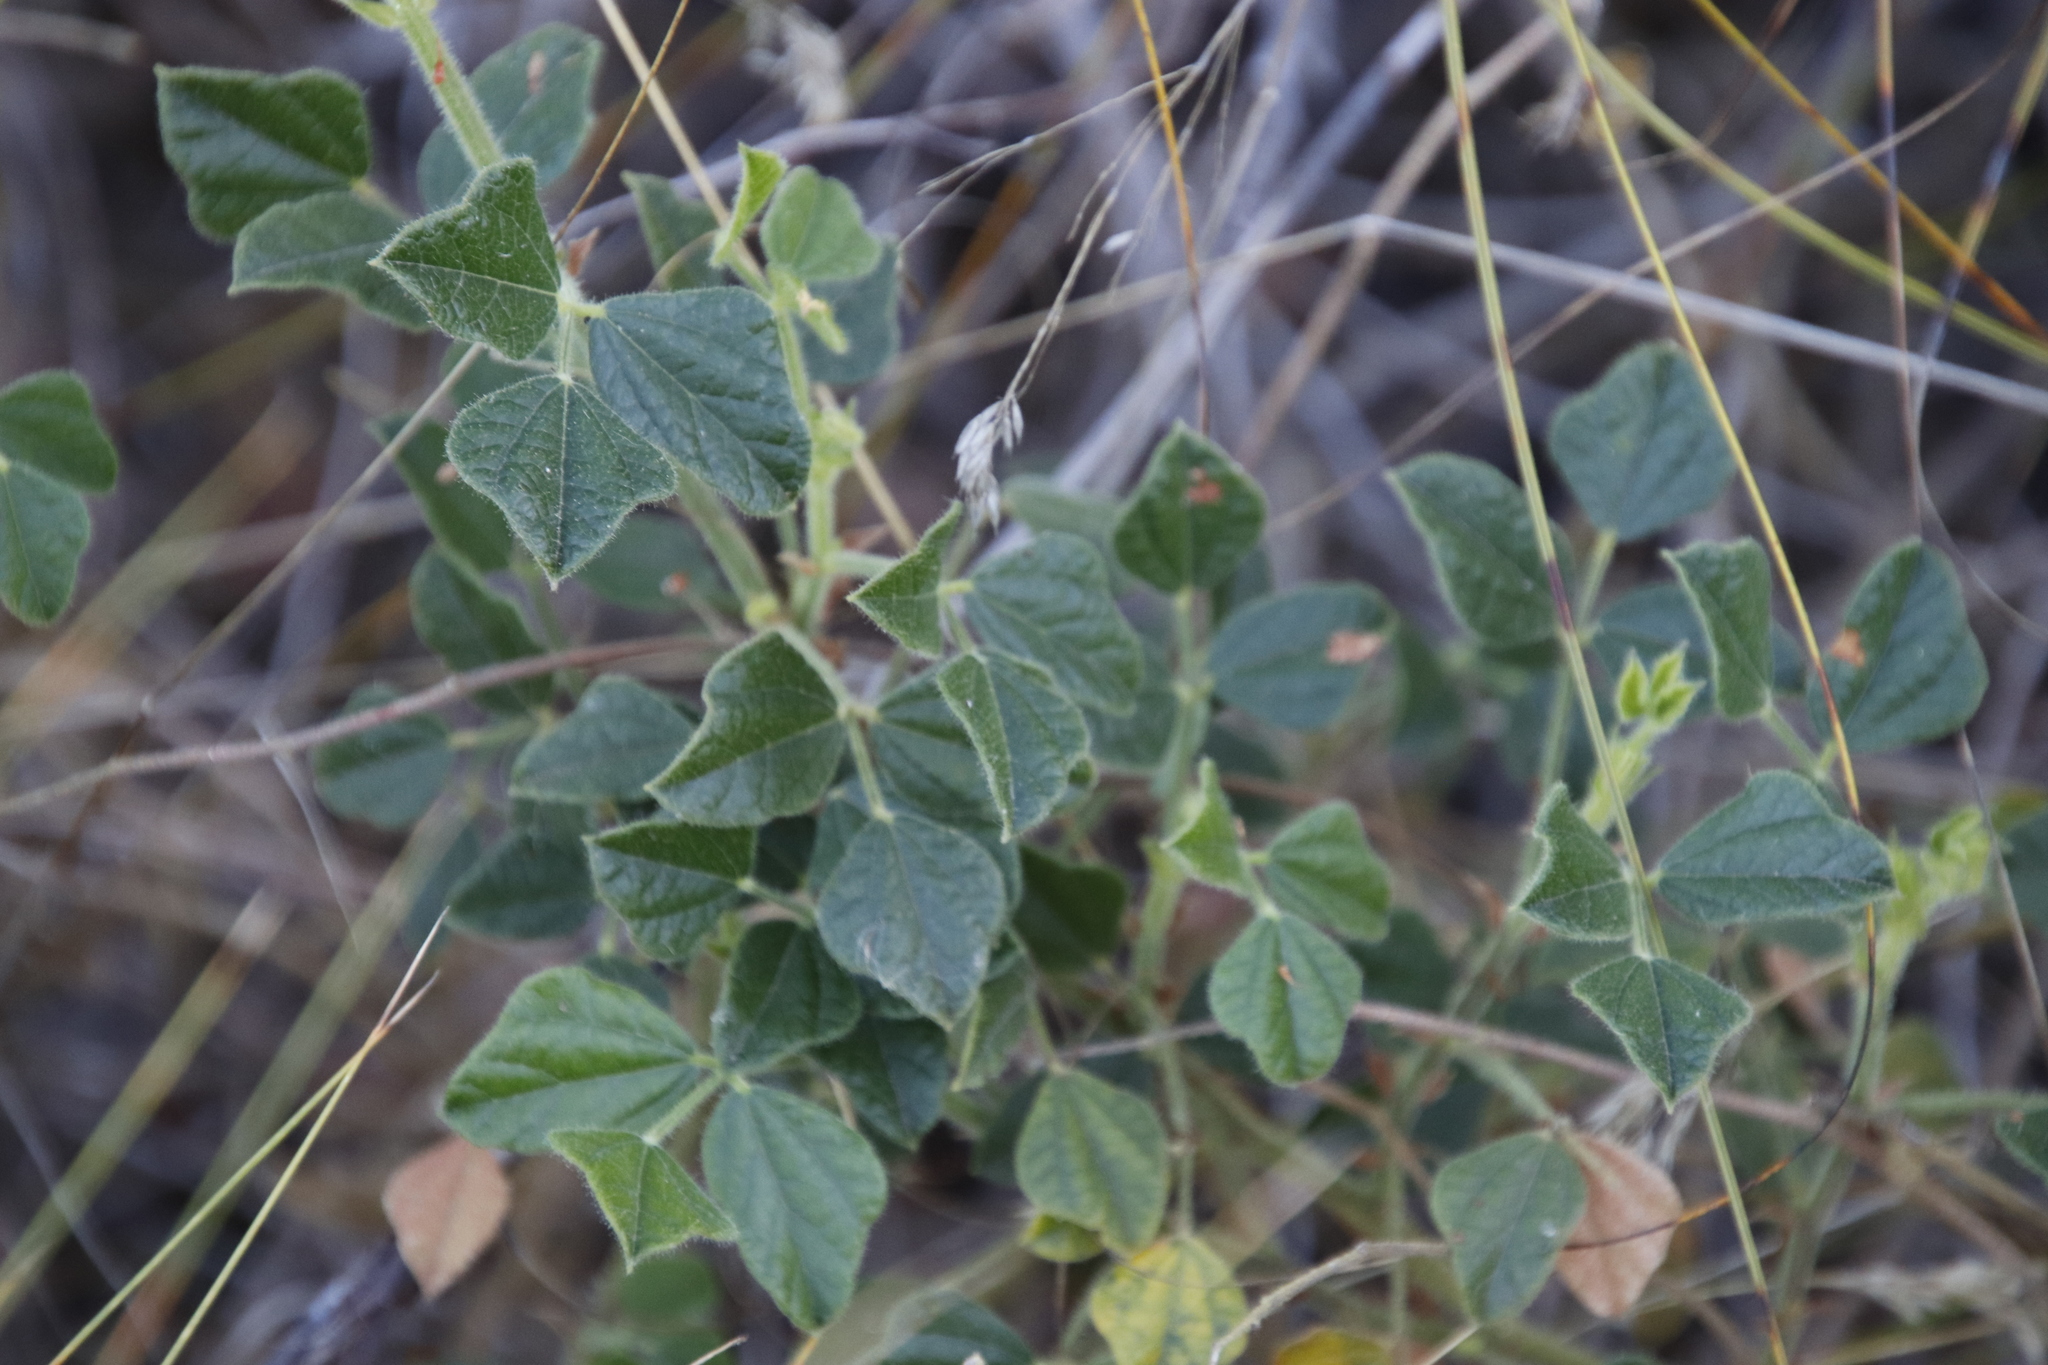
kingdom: Plantae
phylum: Tracheophyta
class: Magnoliopsida
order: Fabales
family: Fabaceae
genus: Bolusafra
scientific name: Bolusafra bituminosa
